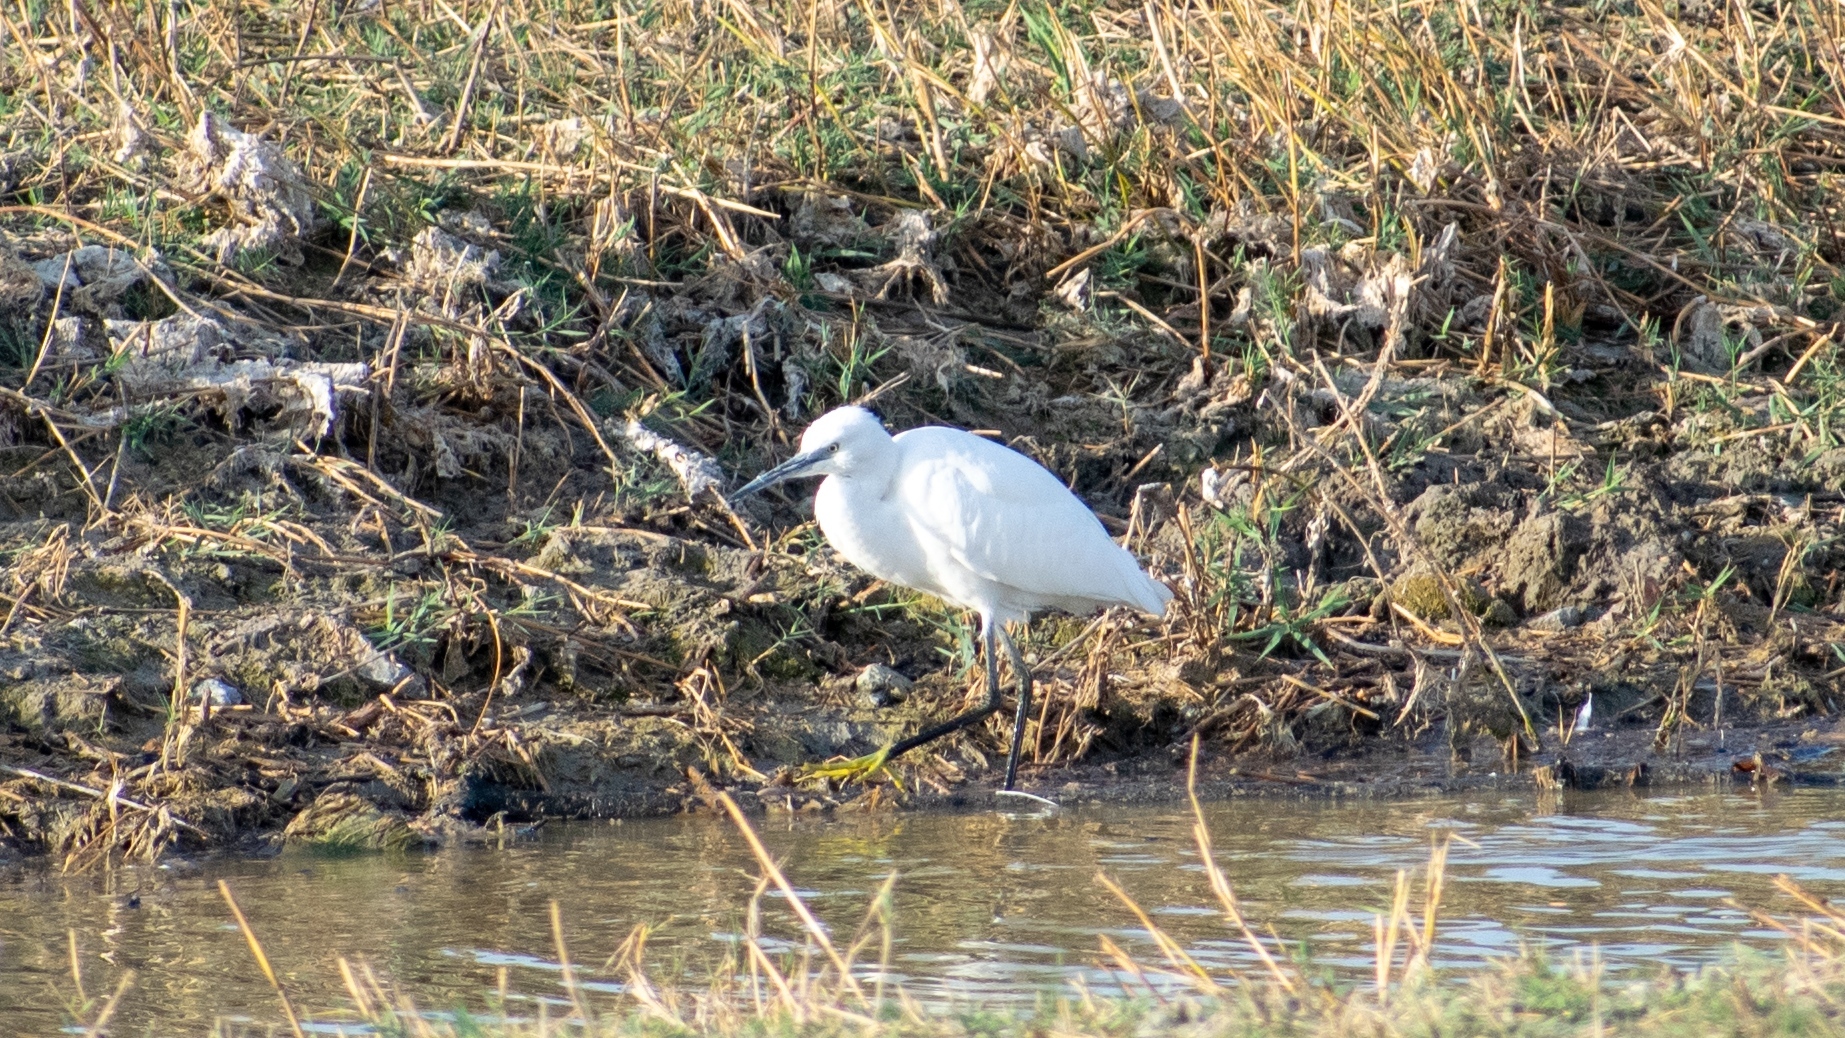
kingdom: Animalia
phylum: Chordata
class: Aves
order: Pelecaniformes
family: Ardeidae
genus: Egretta
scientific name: Egretta garzetta
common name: Little egret
